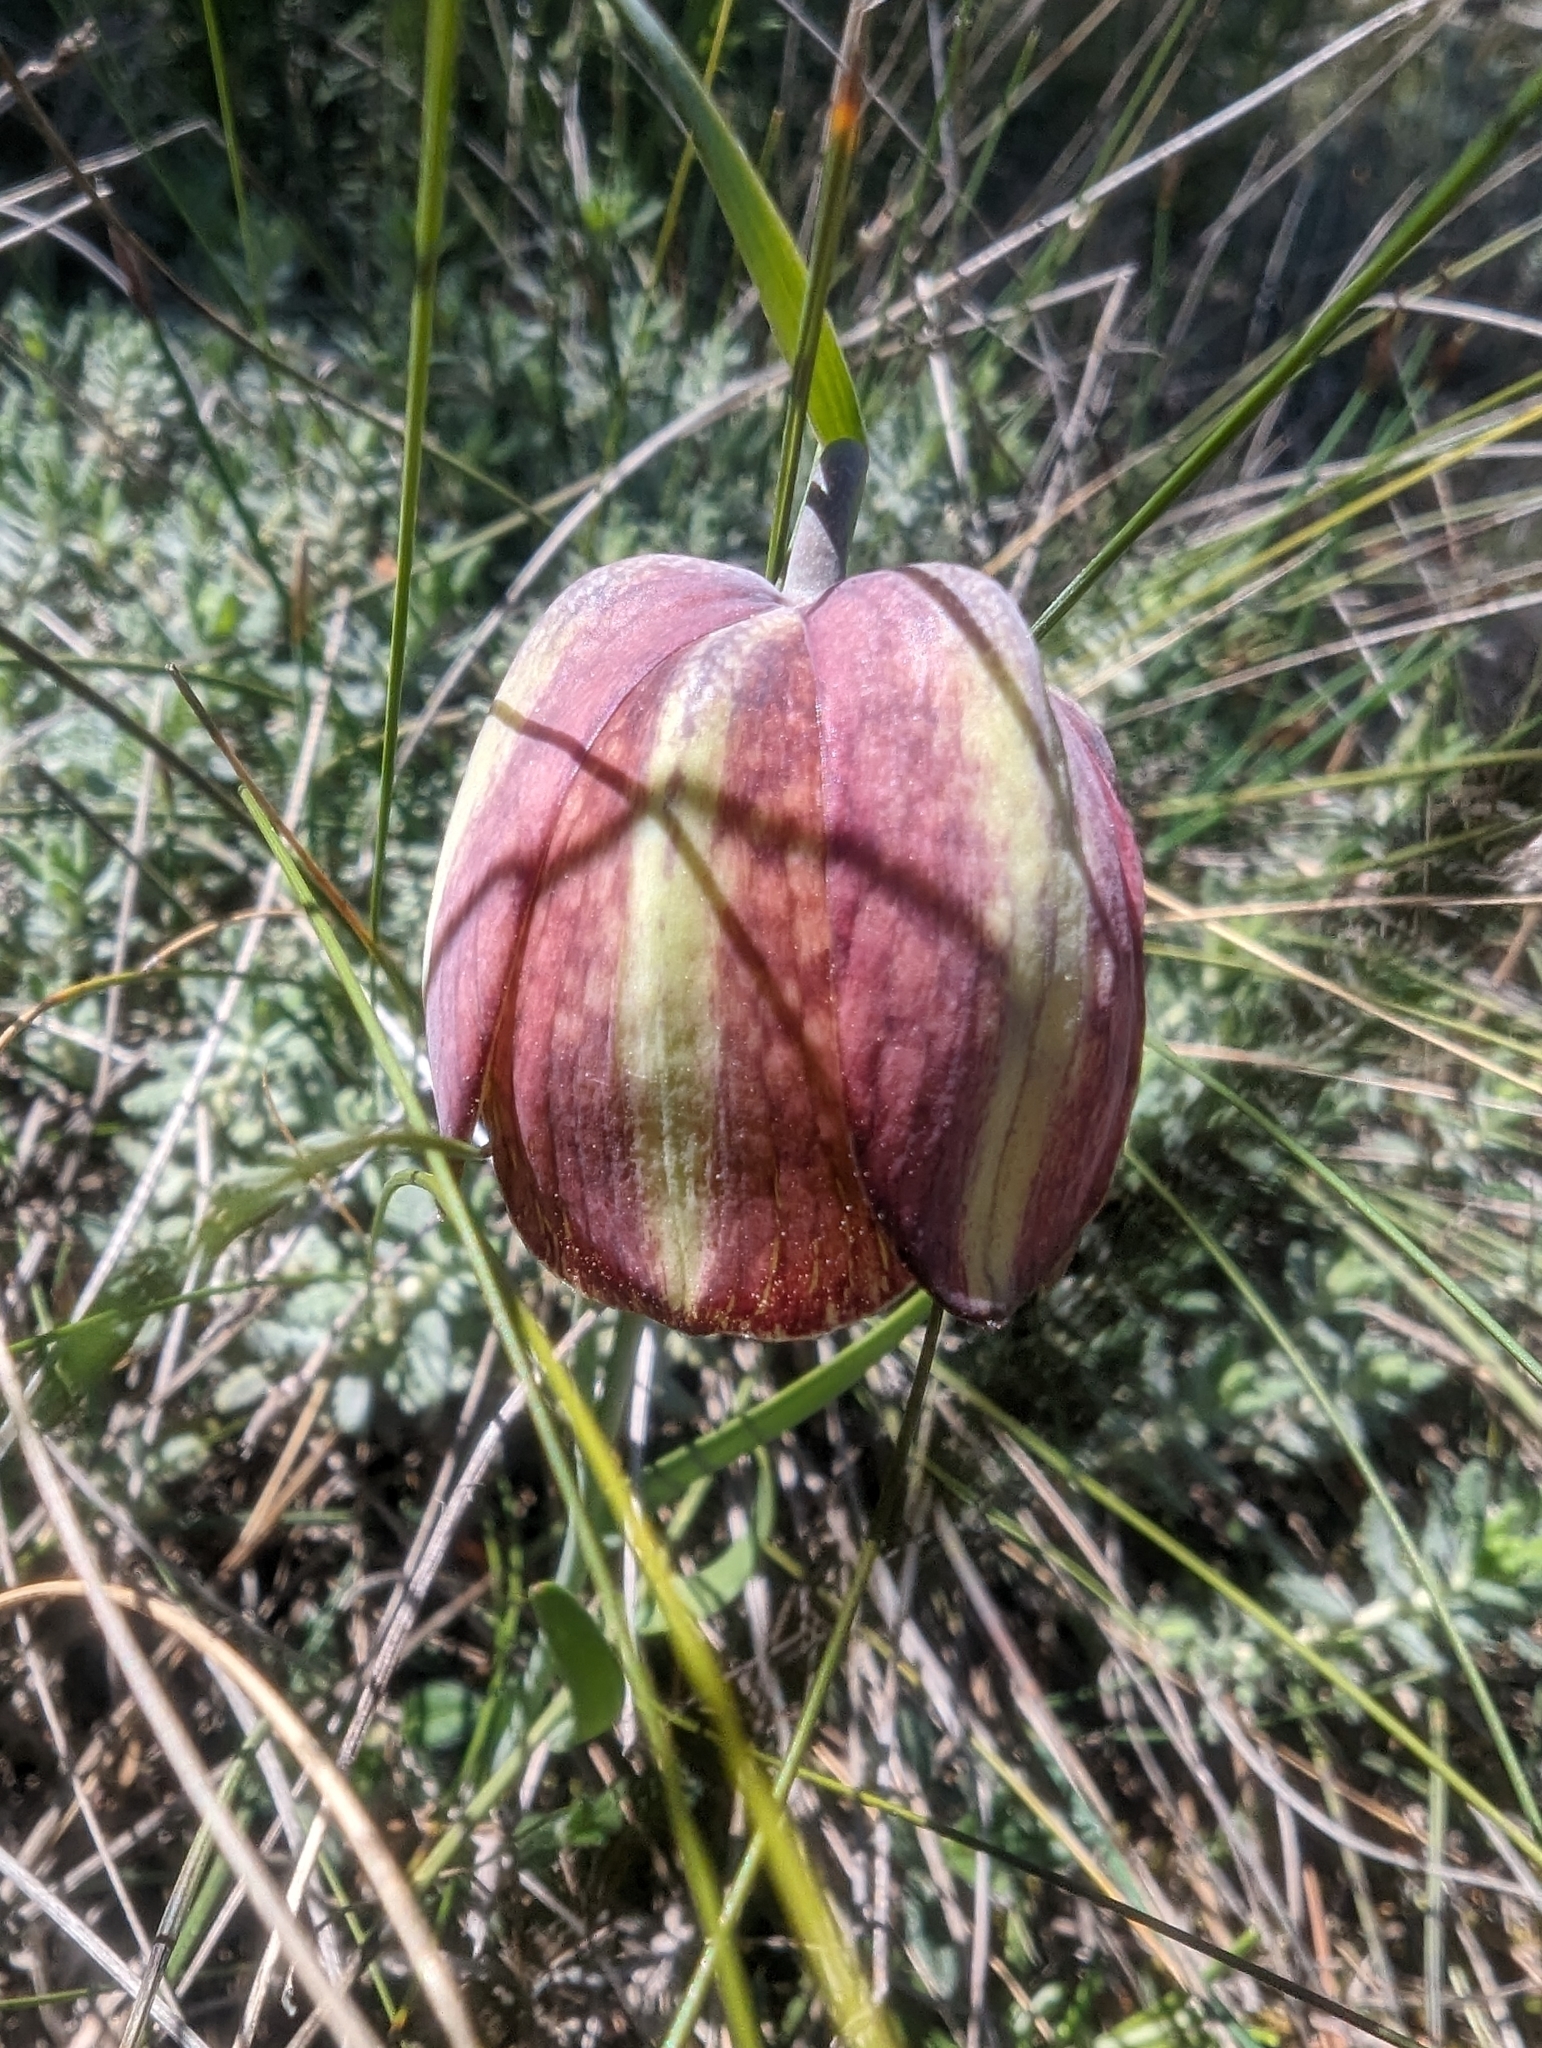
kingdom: Plantae
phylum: Tracheophyta
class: Liliopsida
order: Liliales
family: Liliaceae
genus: Fritillaria
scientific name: Fritillaria lusitanica
